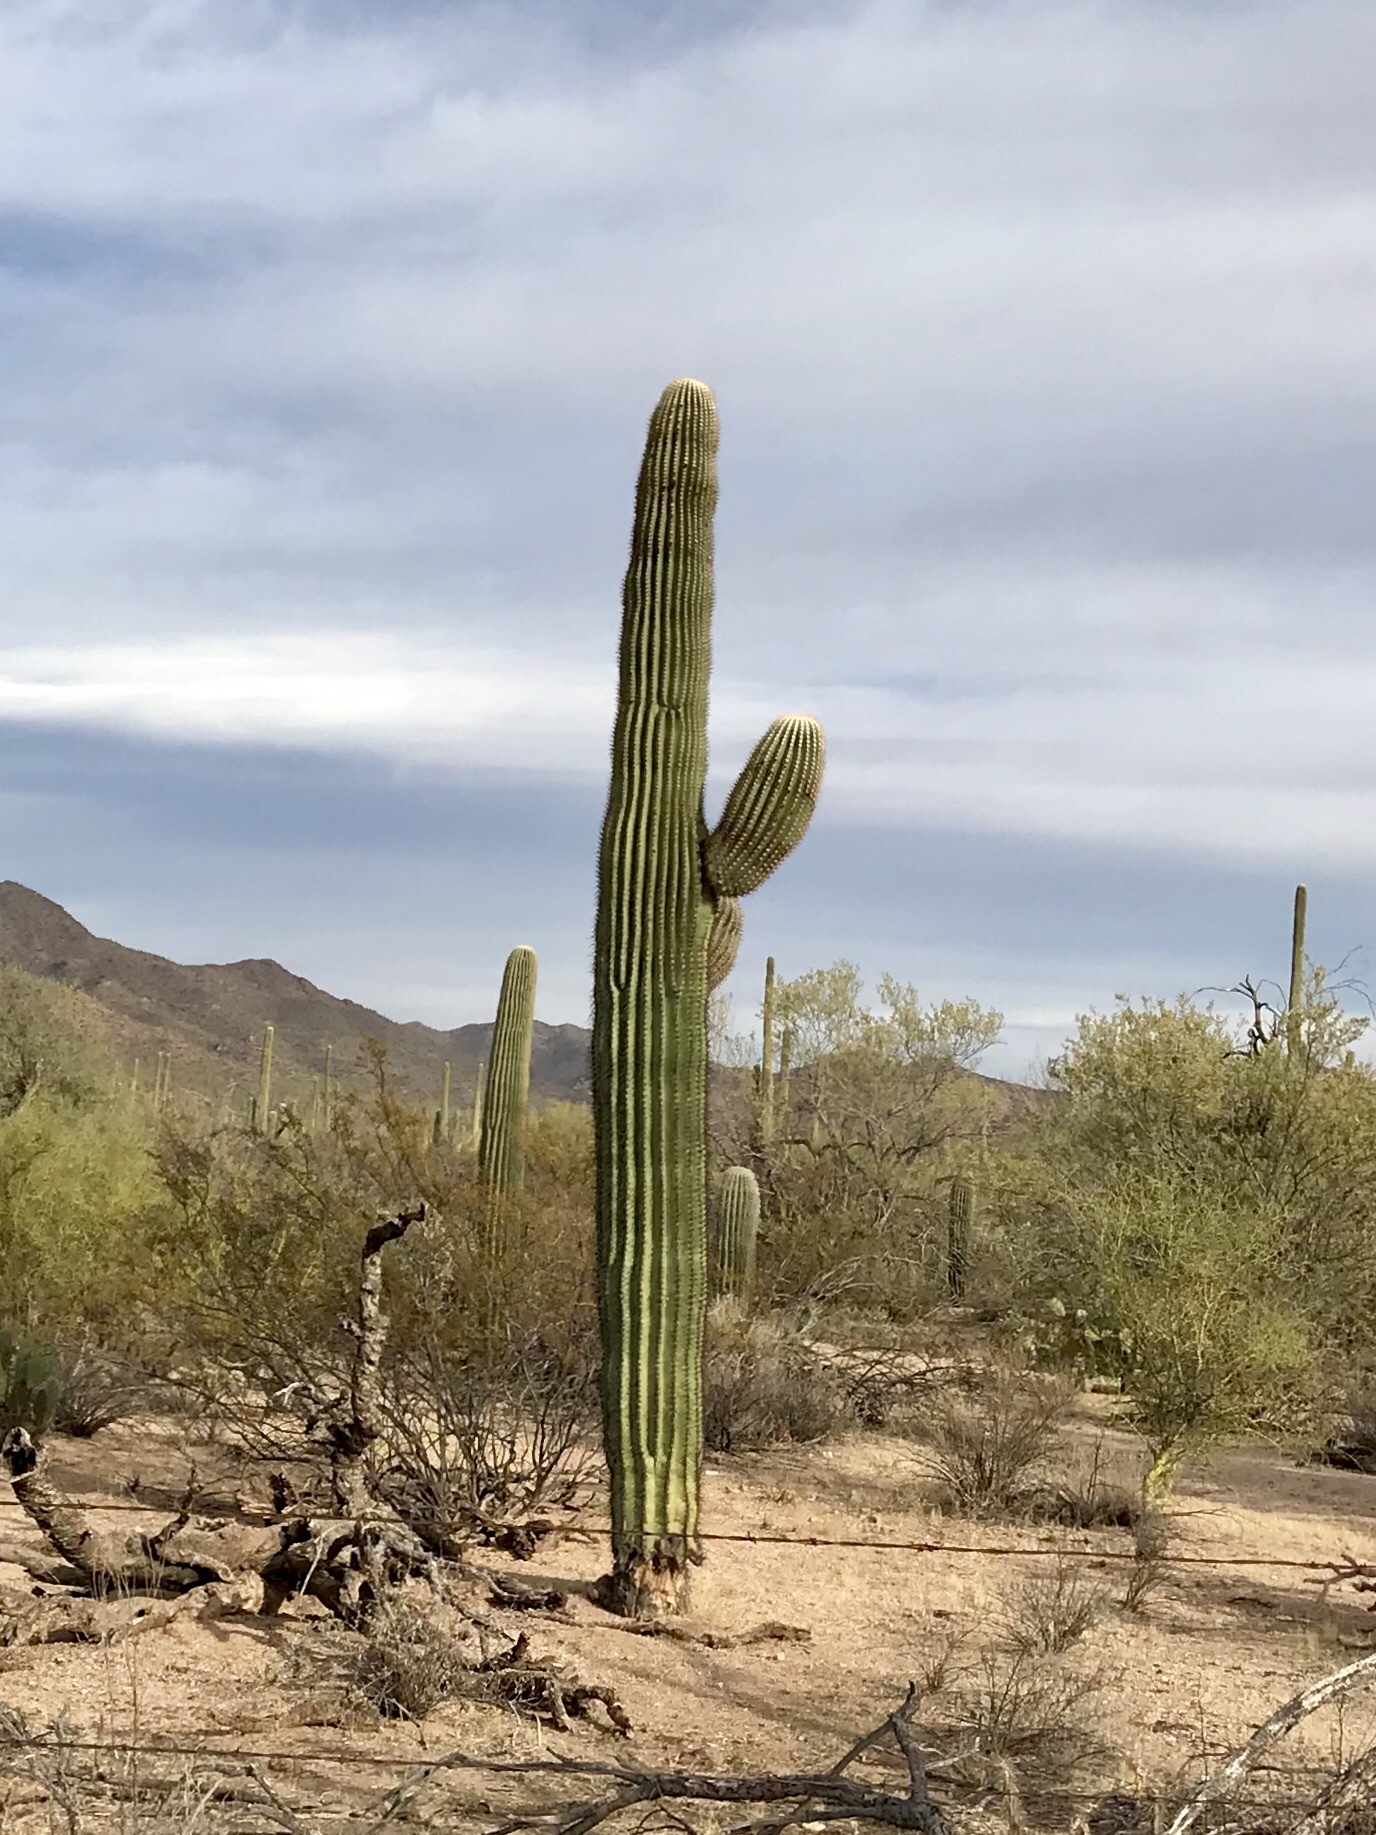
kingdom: Plantae
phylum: Tracheophyta
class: Magnoliopsida
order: Caryophyllales
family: Cactaceae
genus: Carnegiea
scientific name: Carnegiea gigantea
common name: Saguaro
